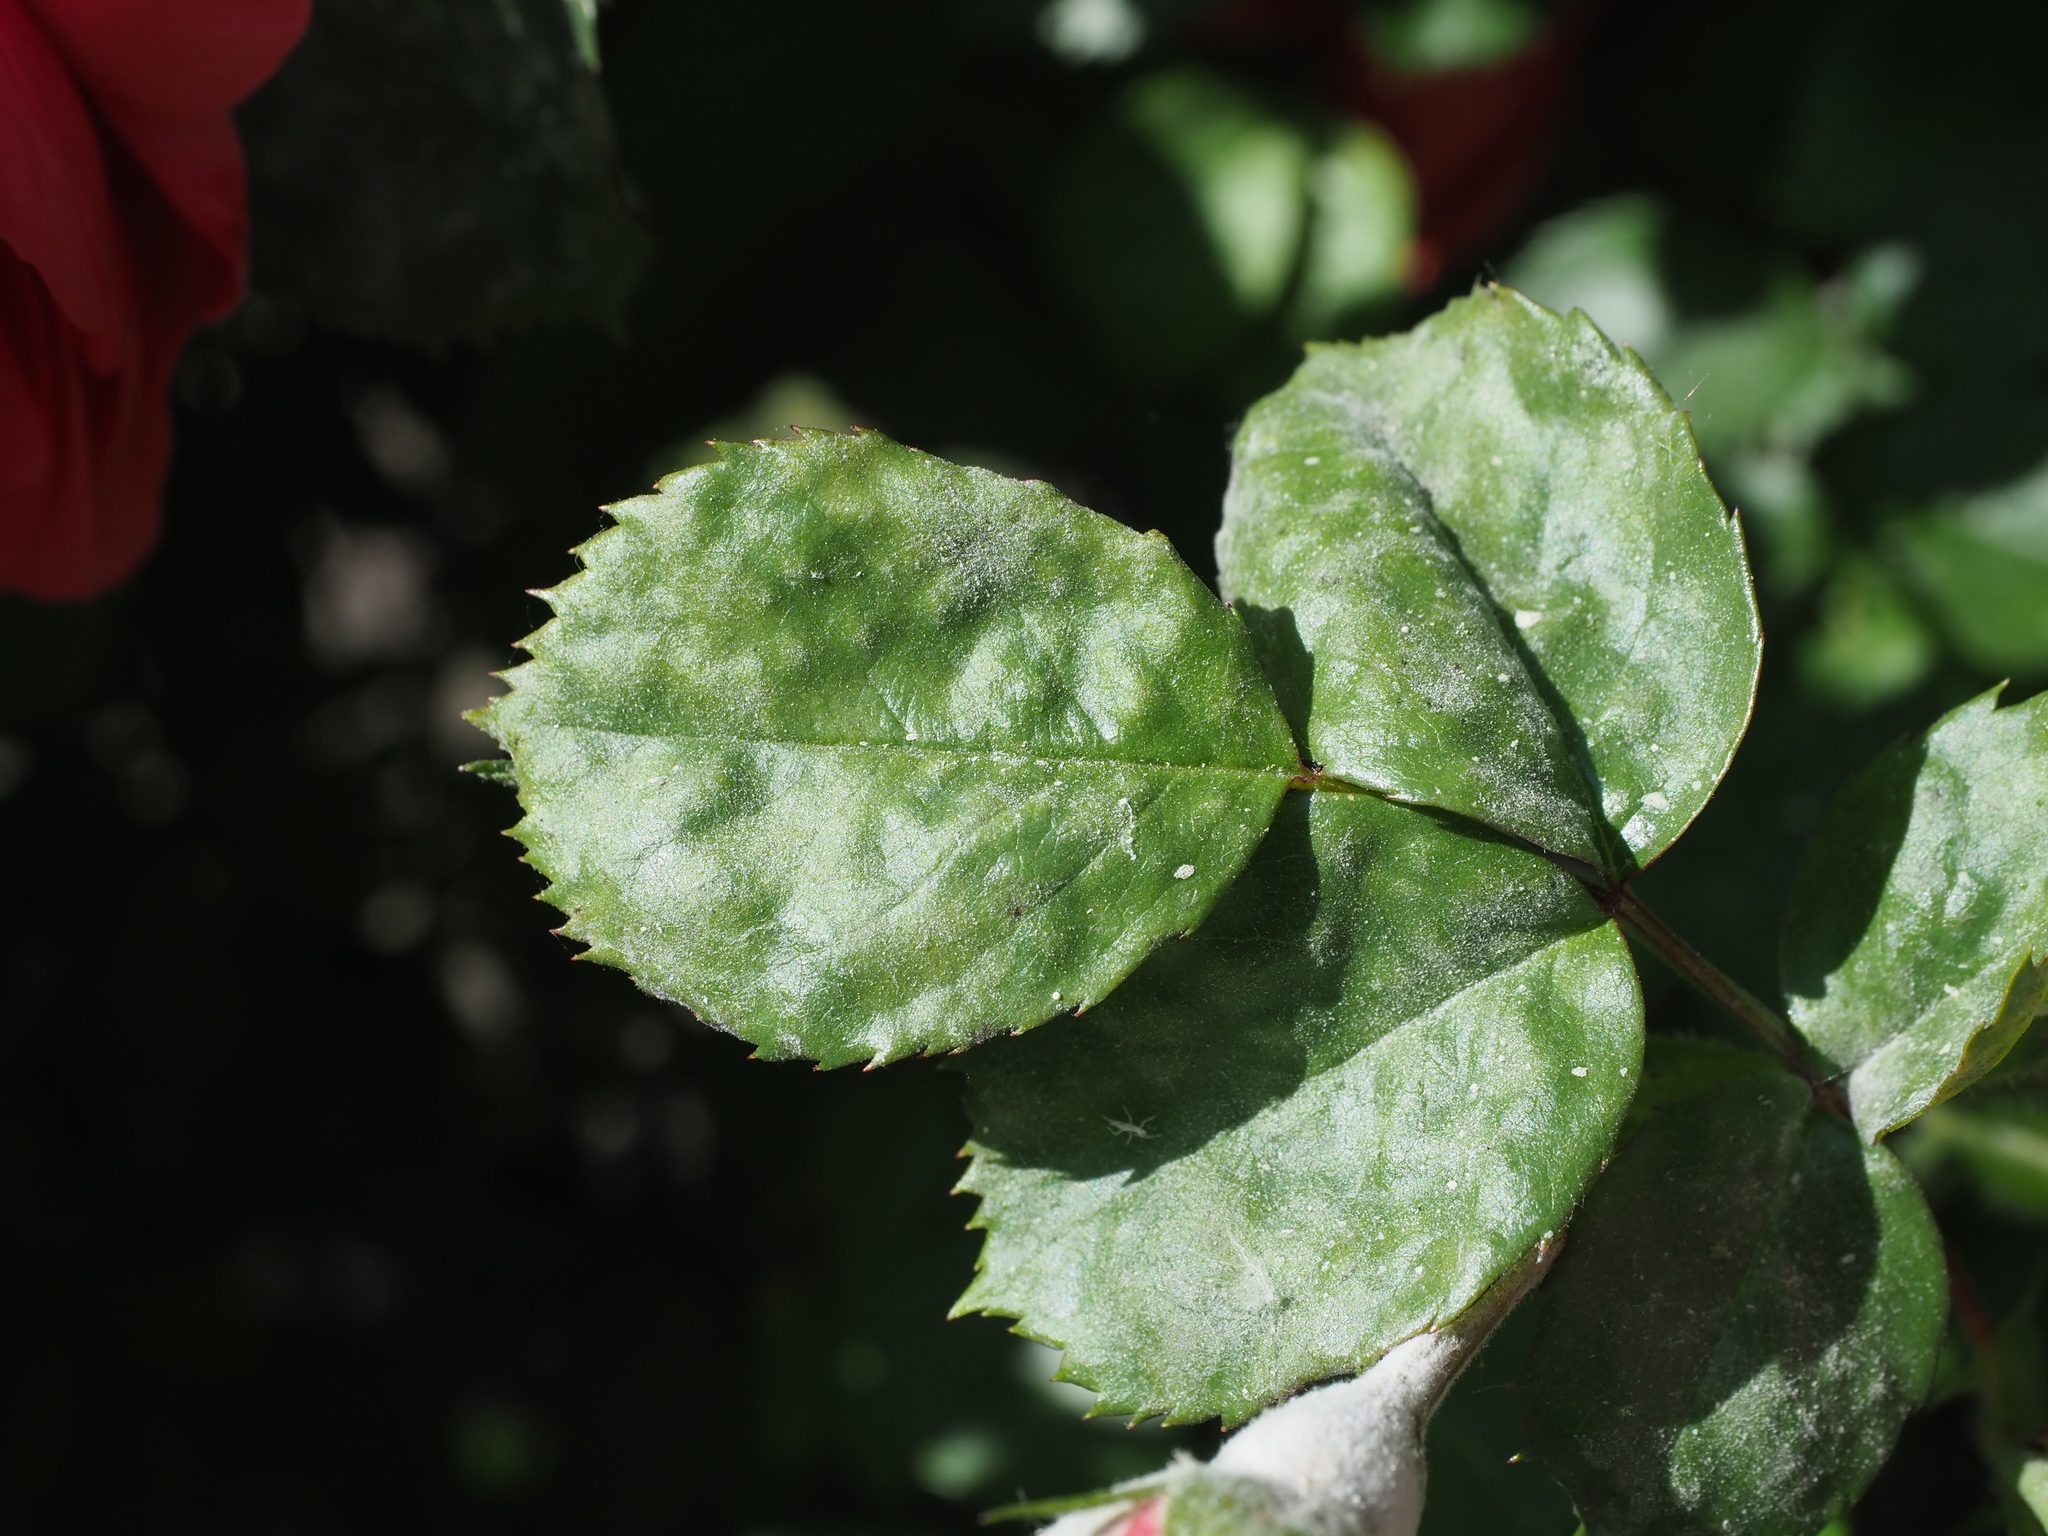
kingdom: Fungi
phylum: Ascomycota
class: Leotiomycetes
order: Helotiales
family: Erysiphaceae
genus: Podosphaera
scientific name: Podosphaera pannosa
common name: Rose mildew
